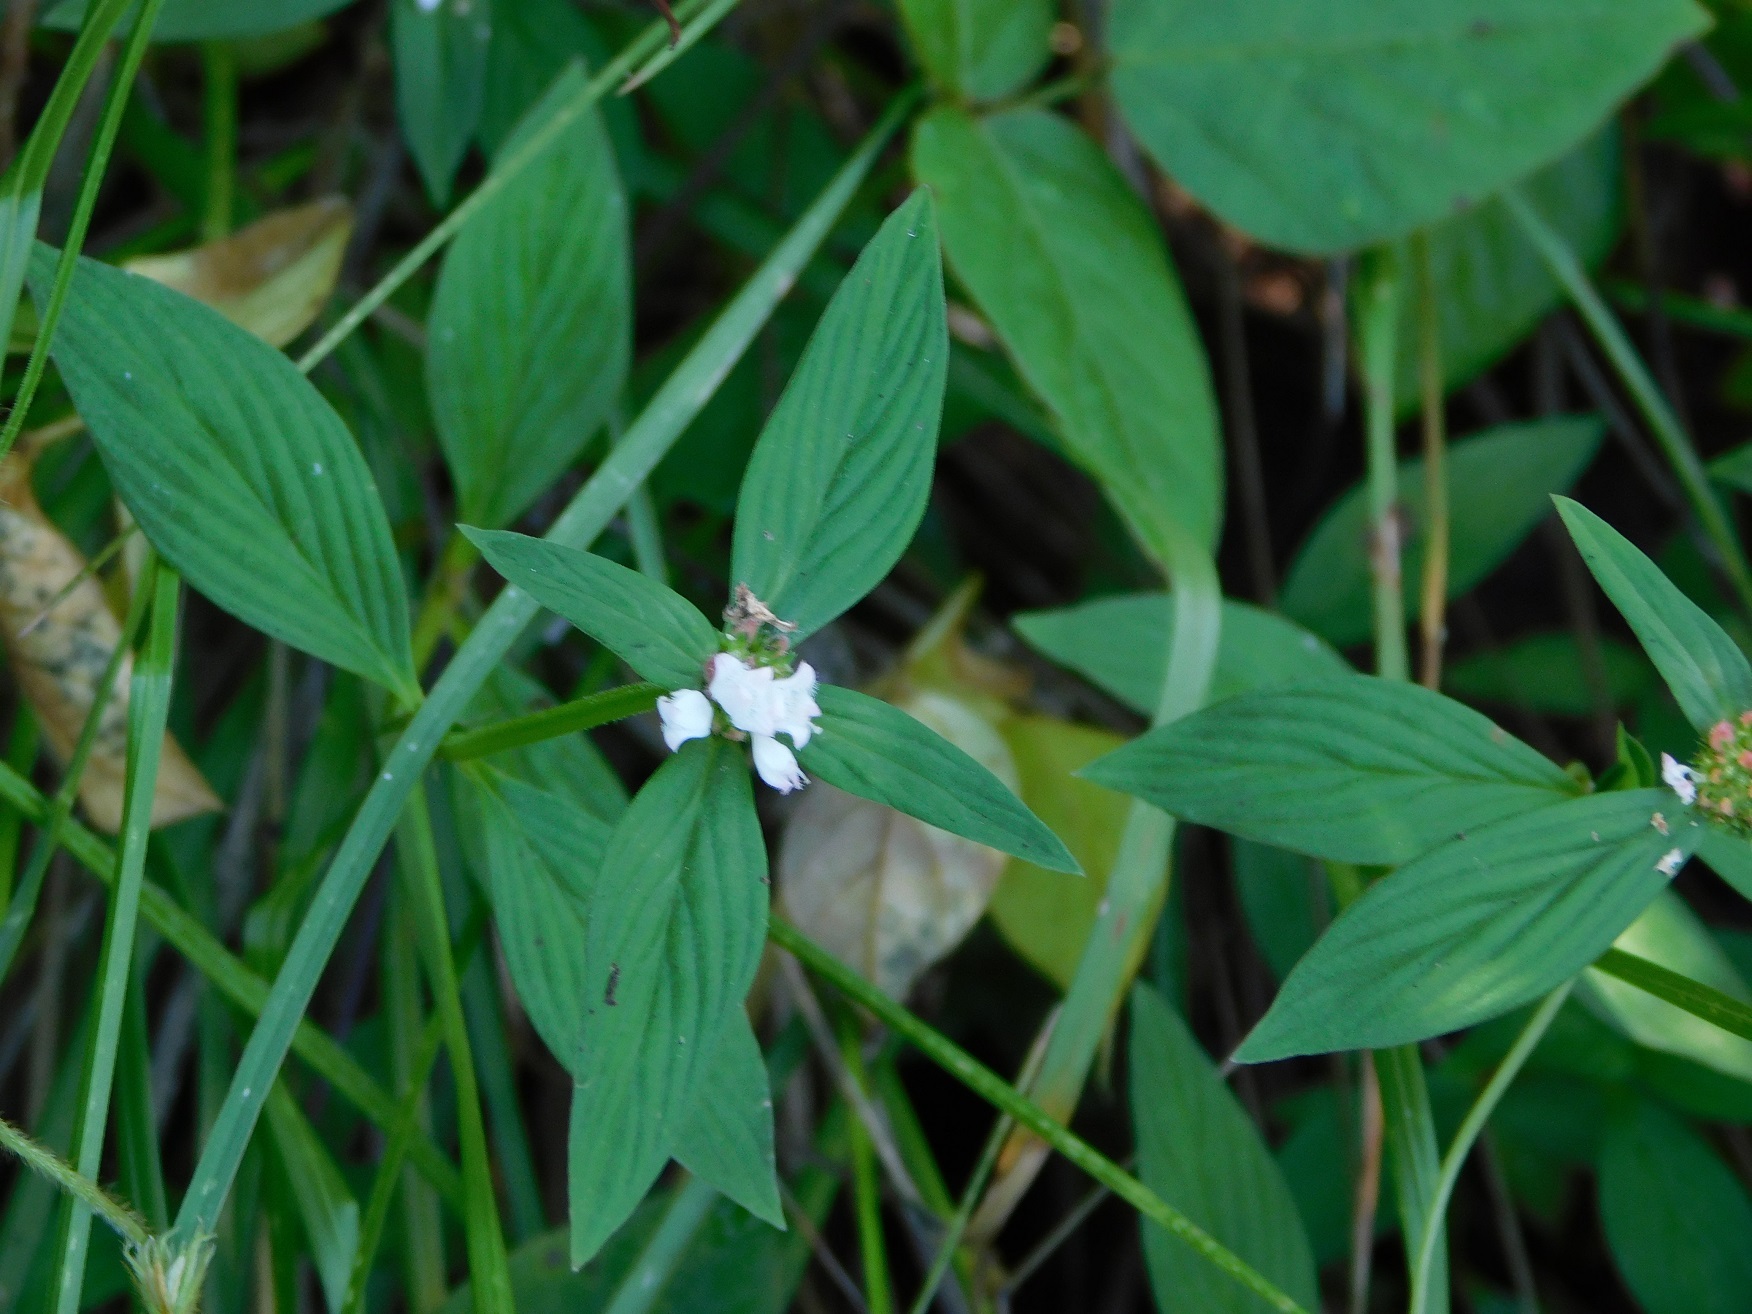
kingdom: Plantae
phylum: Tracheophyta
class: Magnoliopsida
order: Gentianales
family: Rubiaceae
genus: Spermacoce
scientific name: Spermacoce remota
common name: Woodland false buttonweed
